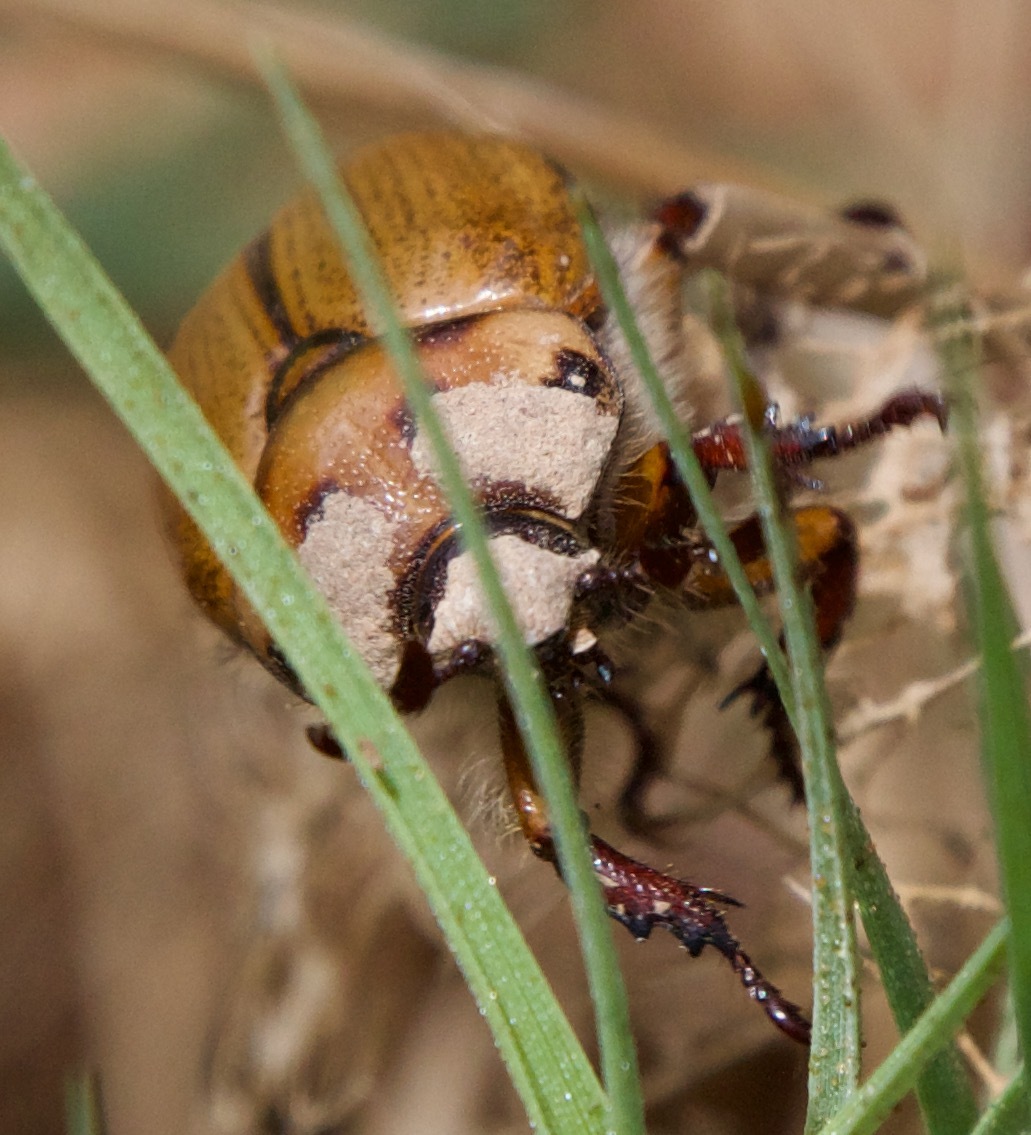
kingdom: Animalia
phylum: Arthropoda
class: Insecta
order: Coleoptera
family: Scarabaeidae
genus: Oryctomorphus
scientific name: Oryctomorphus maculicollis
